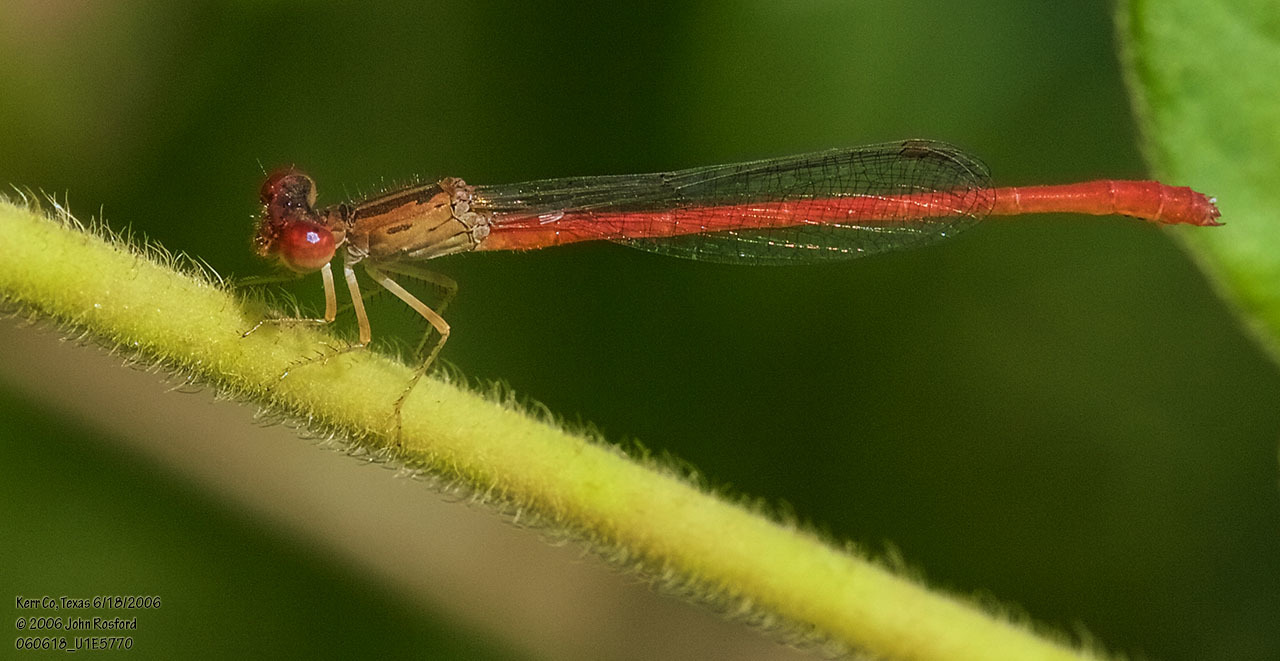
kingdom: Animalia
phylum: Arthropoda
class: Insecta
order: Odonata
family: Coenagrionidae
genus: Telebasis
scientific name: Telebasis salva
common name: Desert firetail
